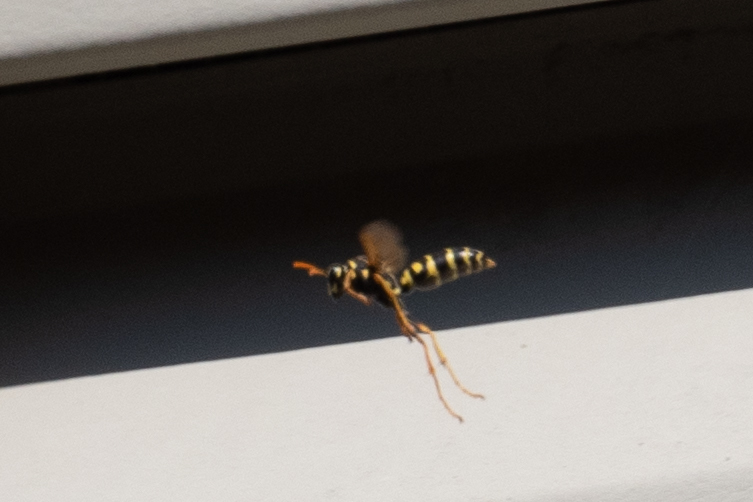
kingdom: Animalia
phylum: Arthropoda
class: Insecta
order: Hymenoptera
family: Eumenidae
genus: Polistes
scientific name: Polistes dominula
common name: Paper wasp
